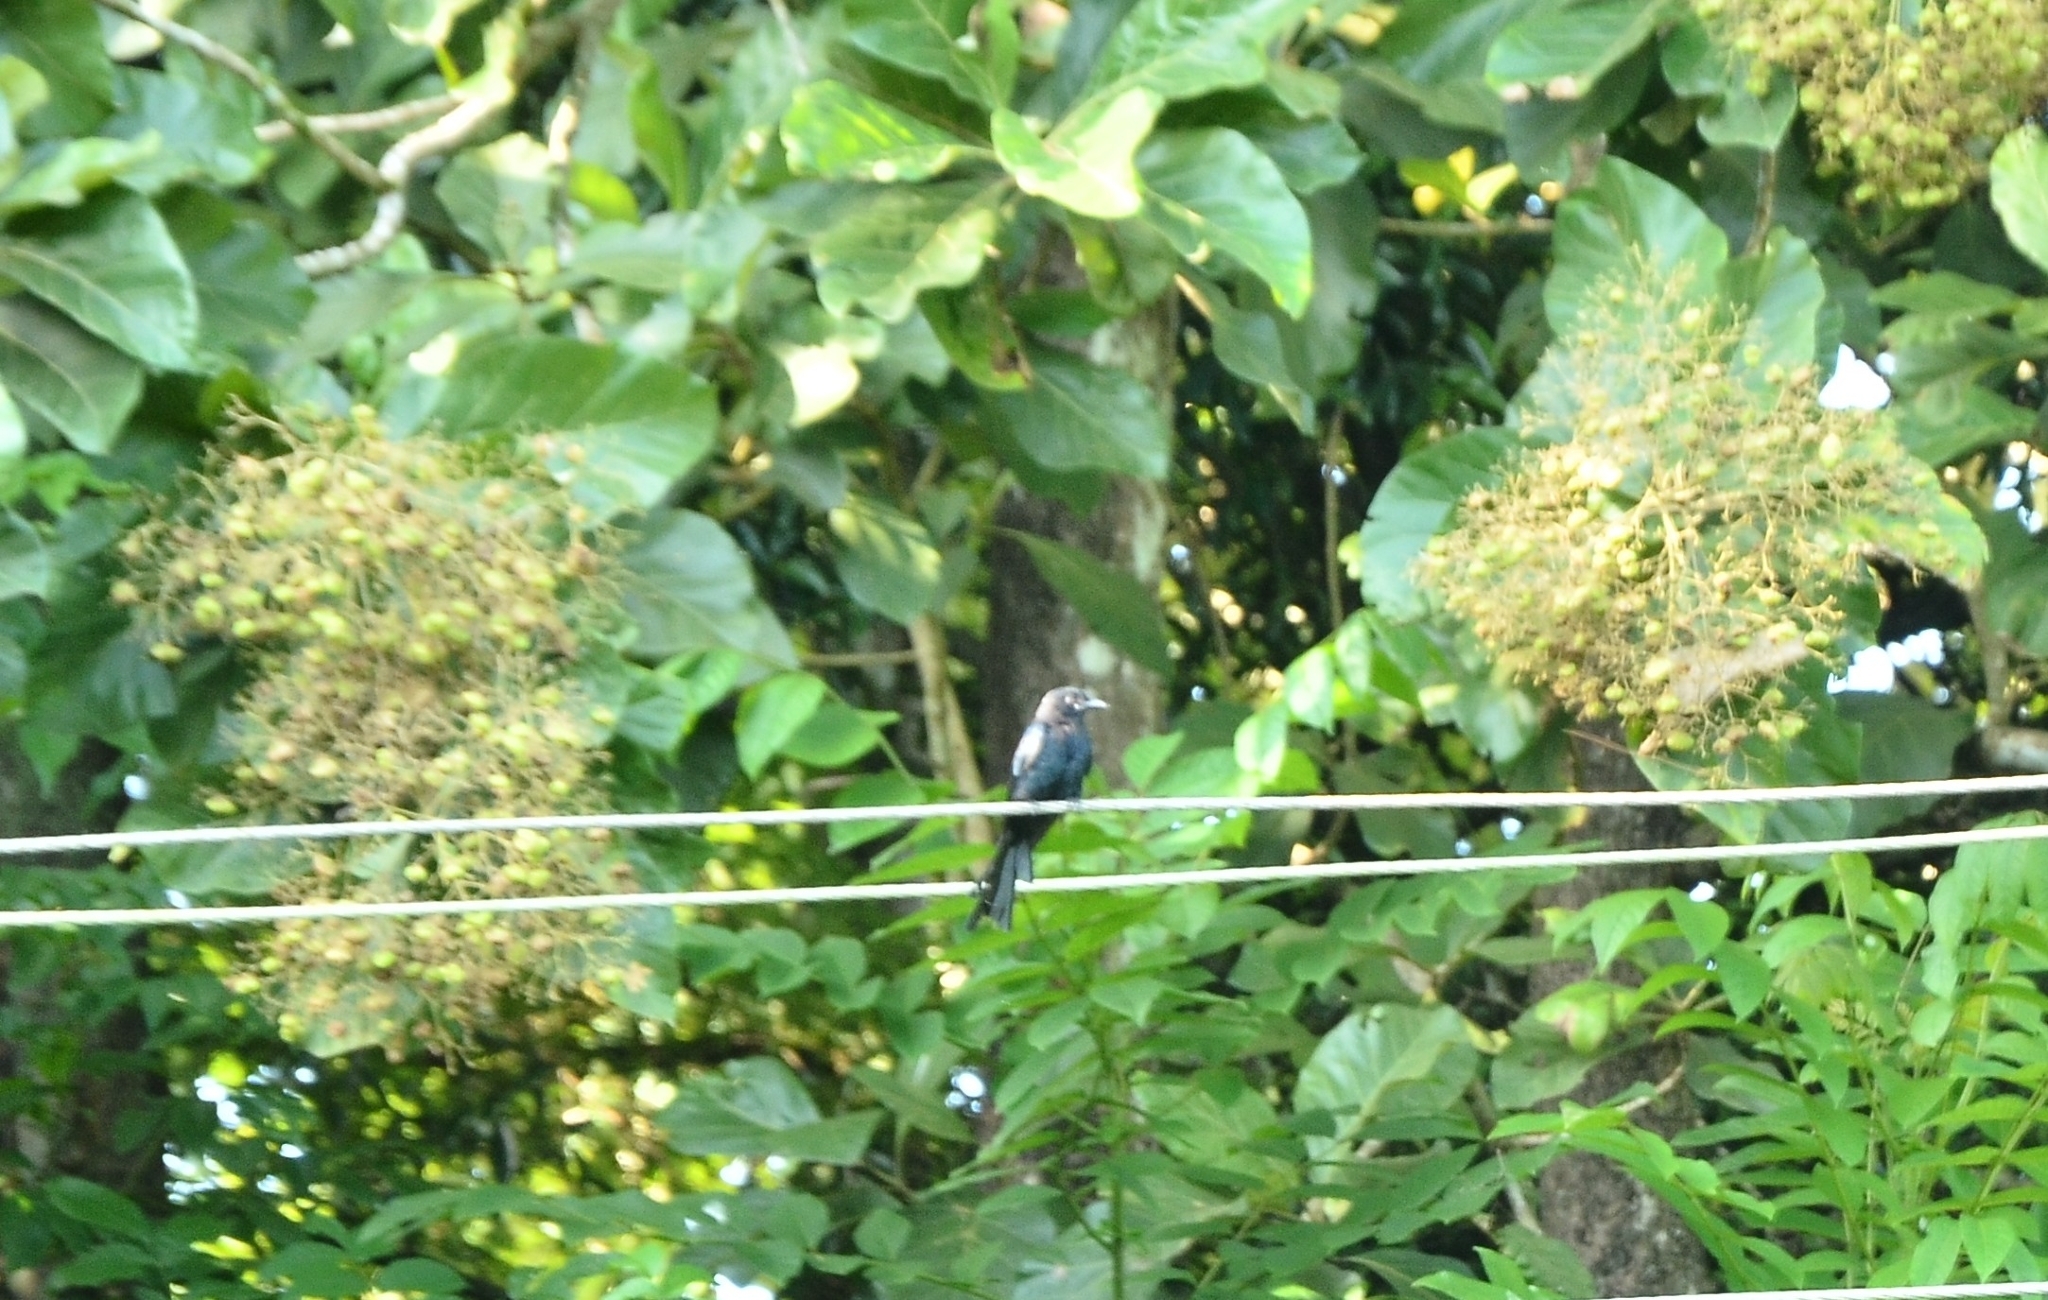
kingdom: Animalia
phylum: Chordata
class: Aves
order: Passeriformes
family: Dicruridae
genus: Dicrurus
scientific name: Dicrurus paradiseus
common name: Greater racket-tailed drongo
